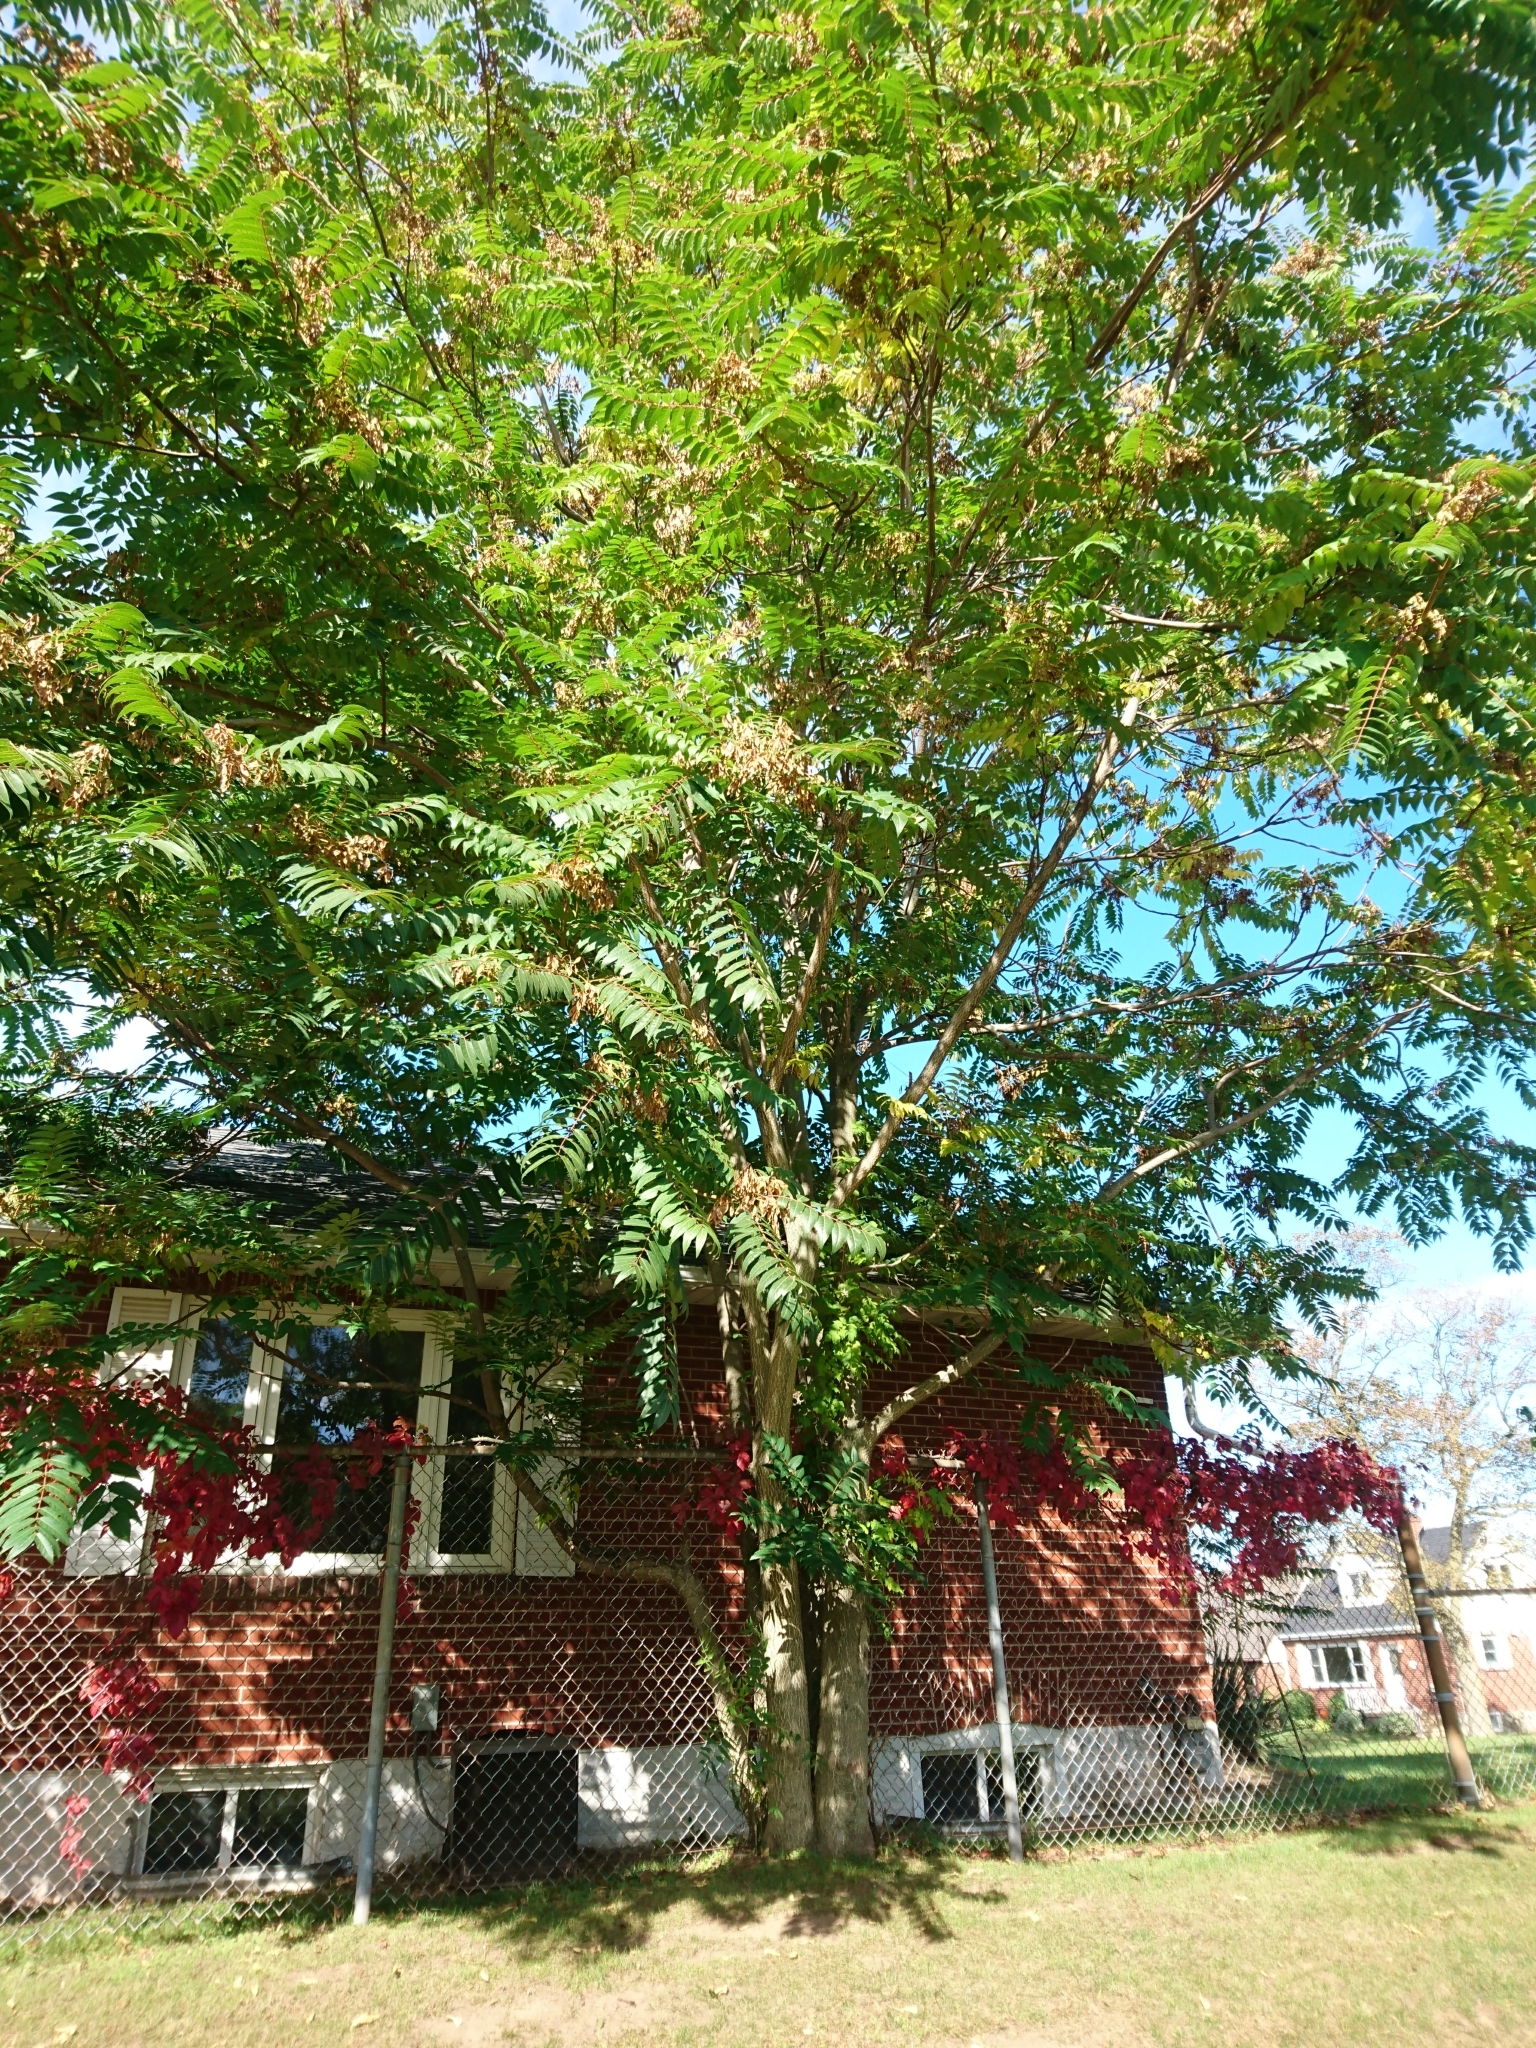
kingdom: Plantae
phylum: Tracheophyta
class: Magnoliopsida
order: Sapindales
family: Simaroubaceae
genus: Ailanthus
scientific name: Ailanthus altissima
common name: Tree-of-heaven
